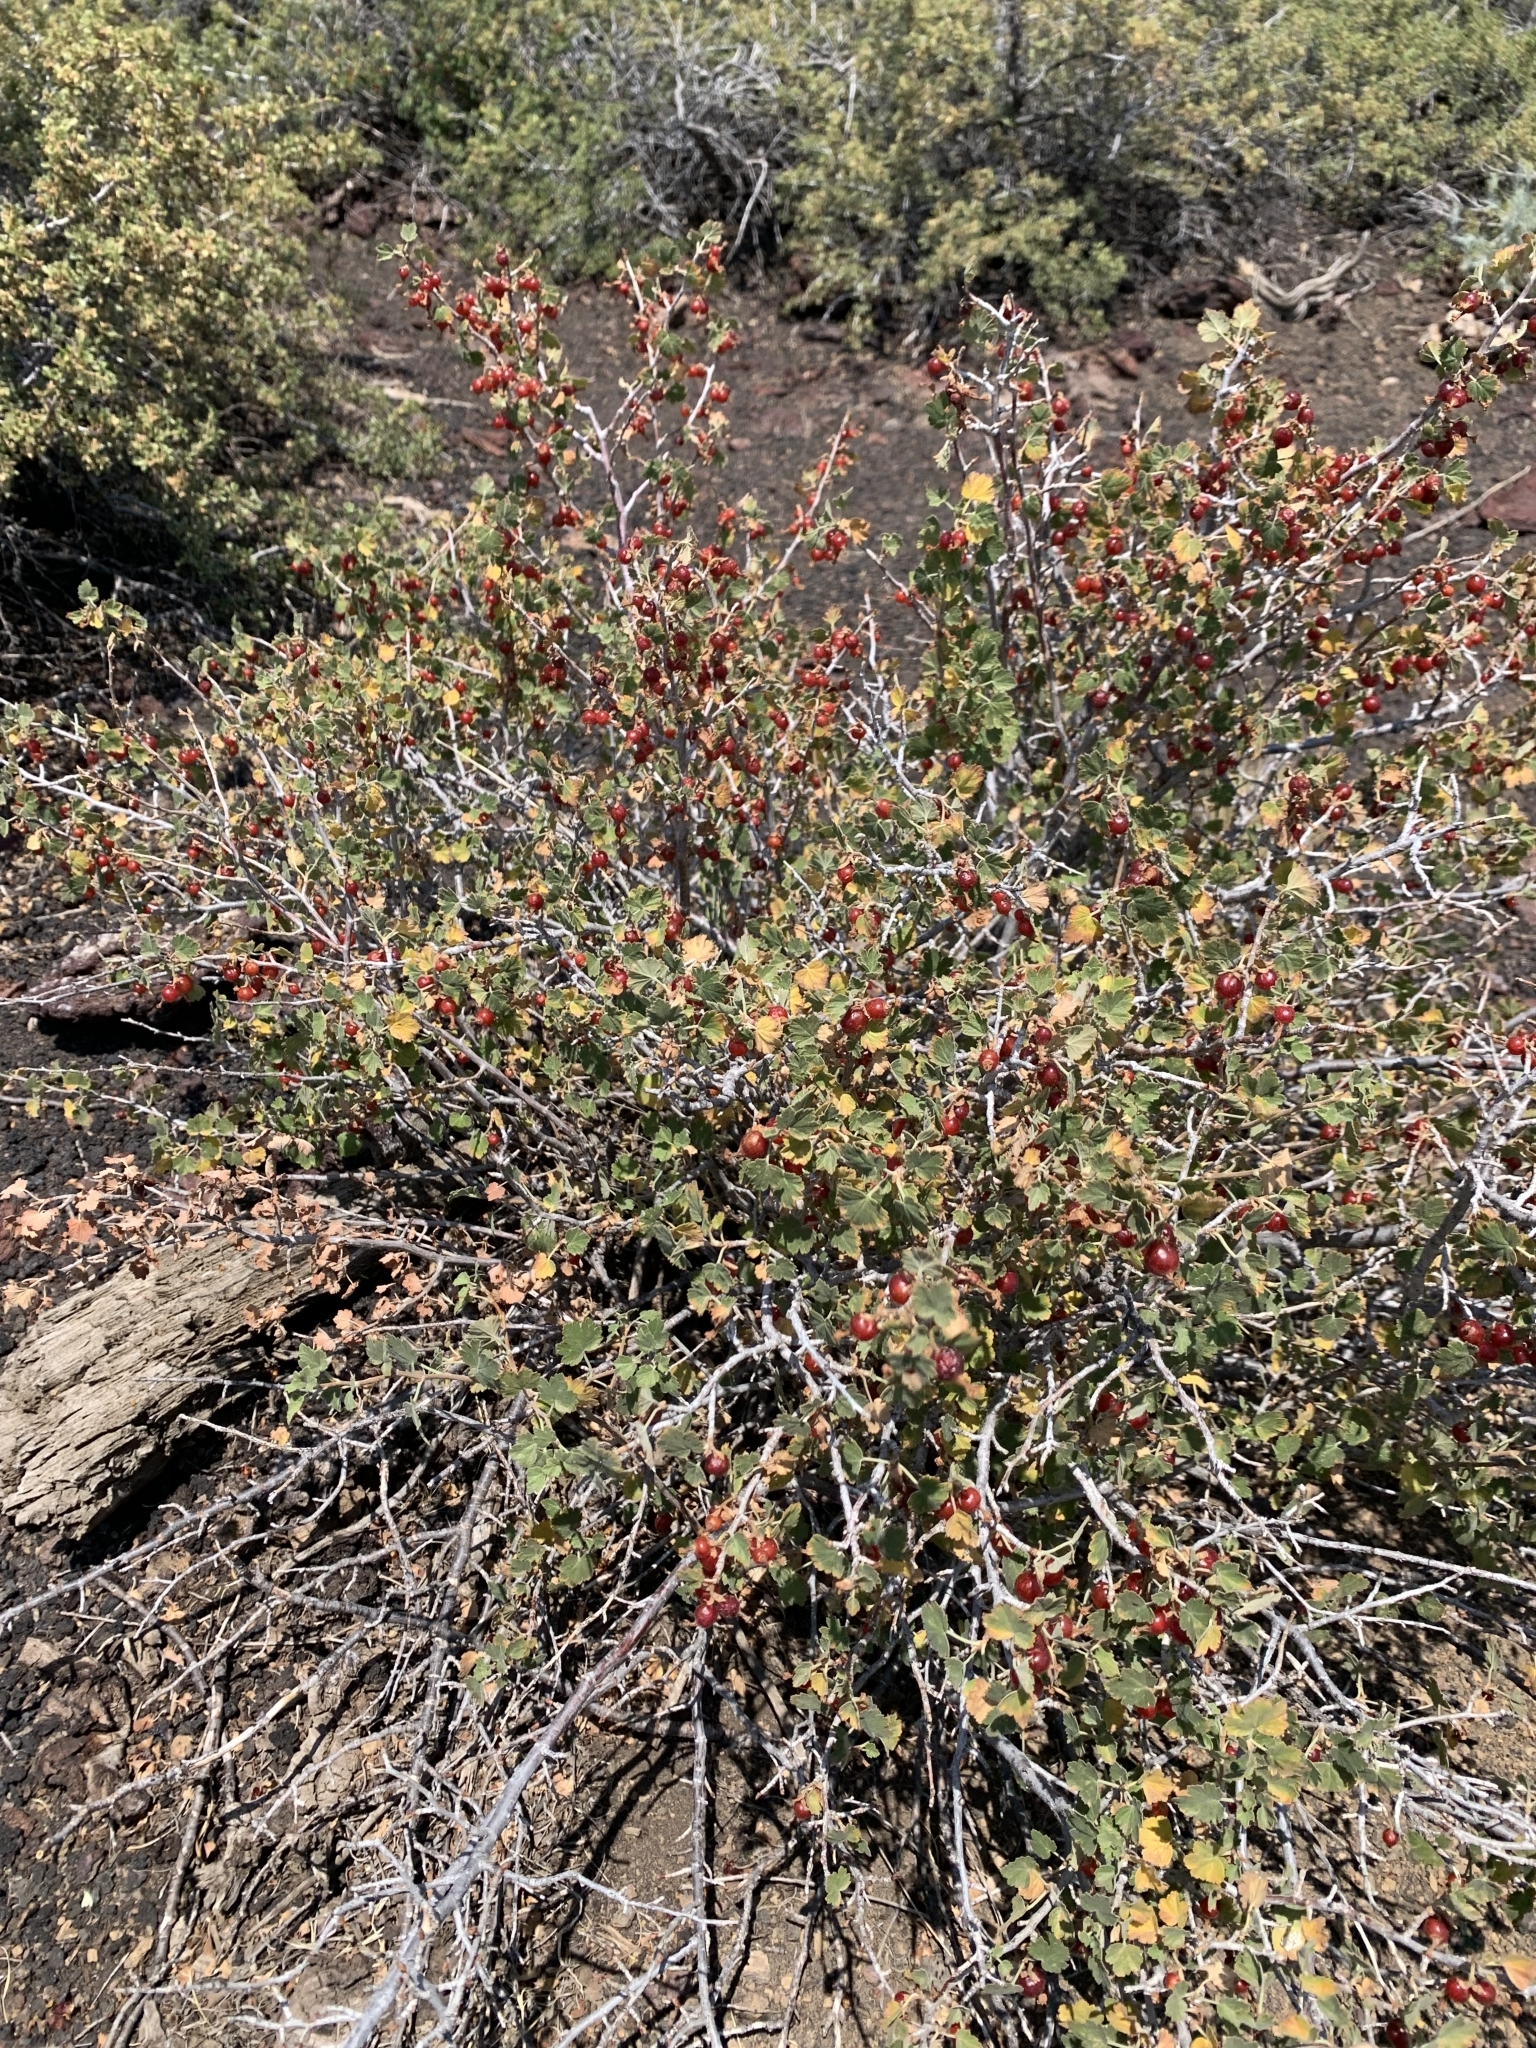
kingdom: Plantae
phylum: Tracheophyta
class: Magnoliopsida
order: Saxifragales
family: Grossulariaceae
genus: Ribes
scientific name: Ribes cereum
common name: Wax currant
